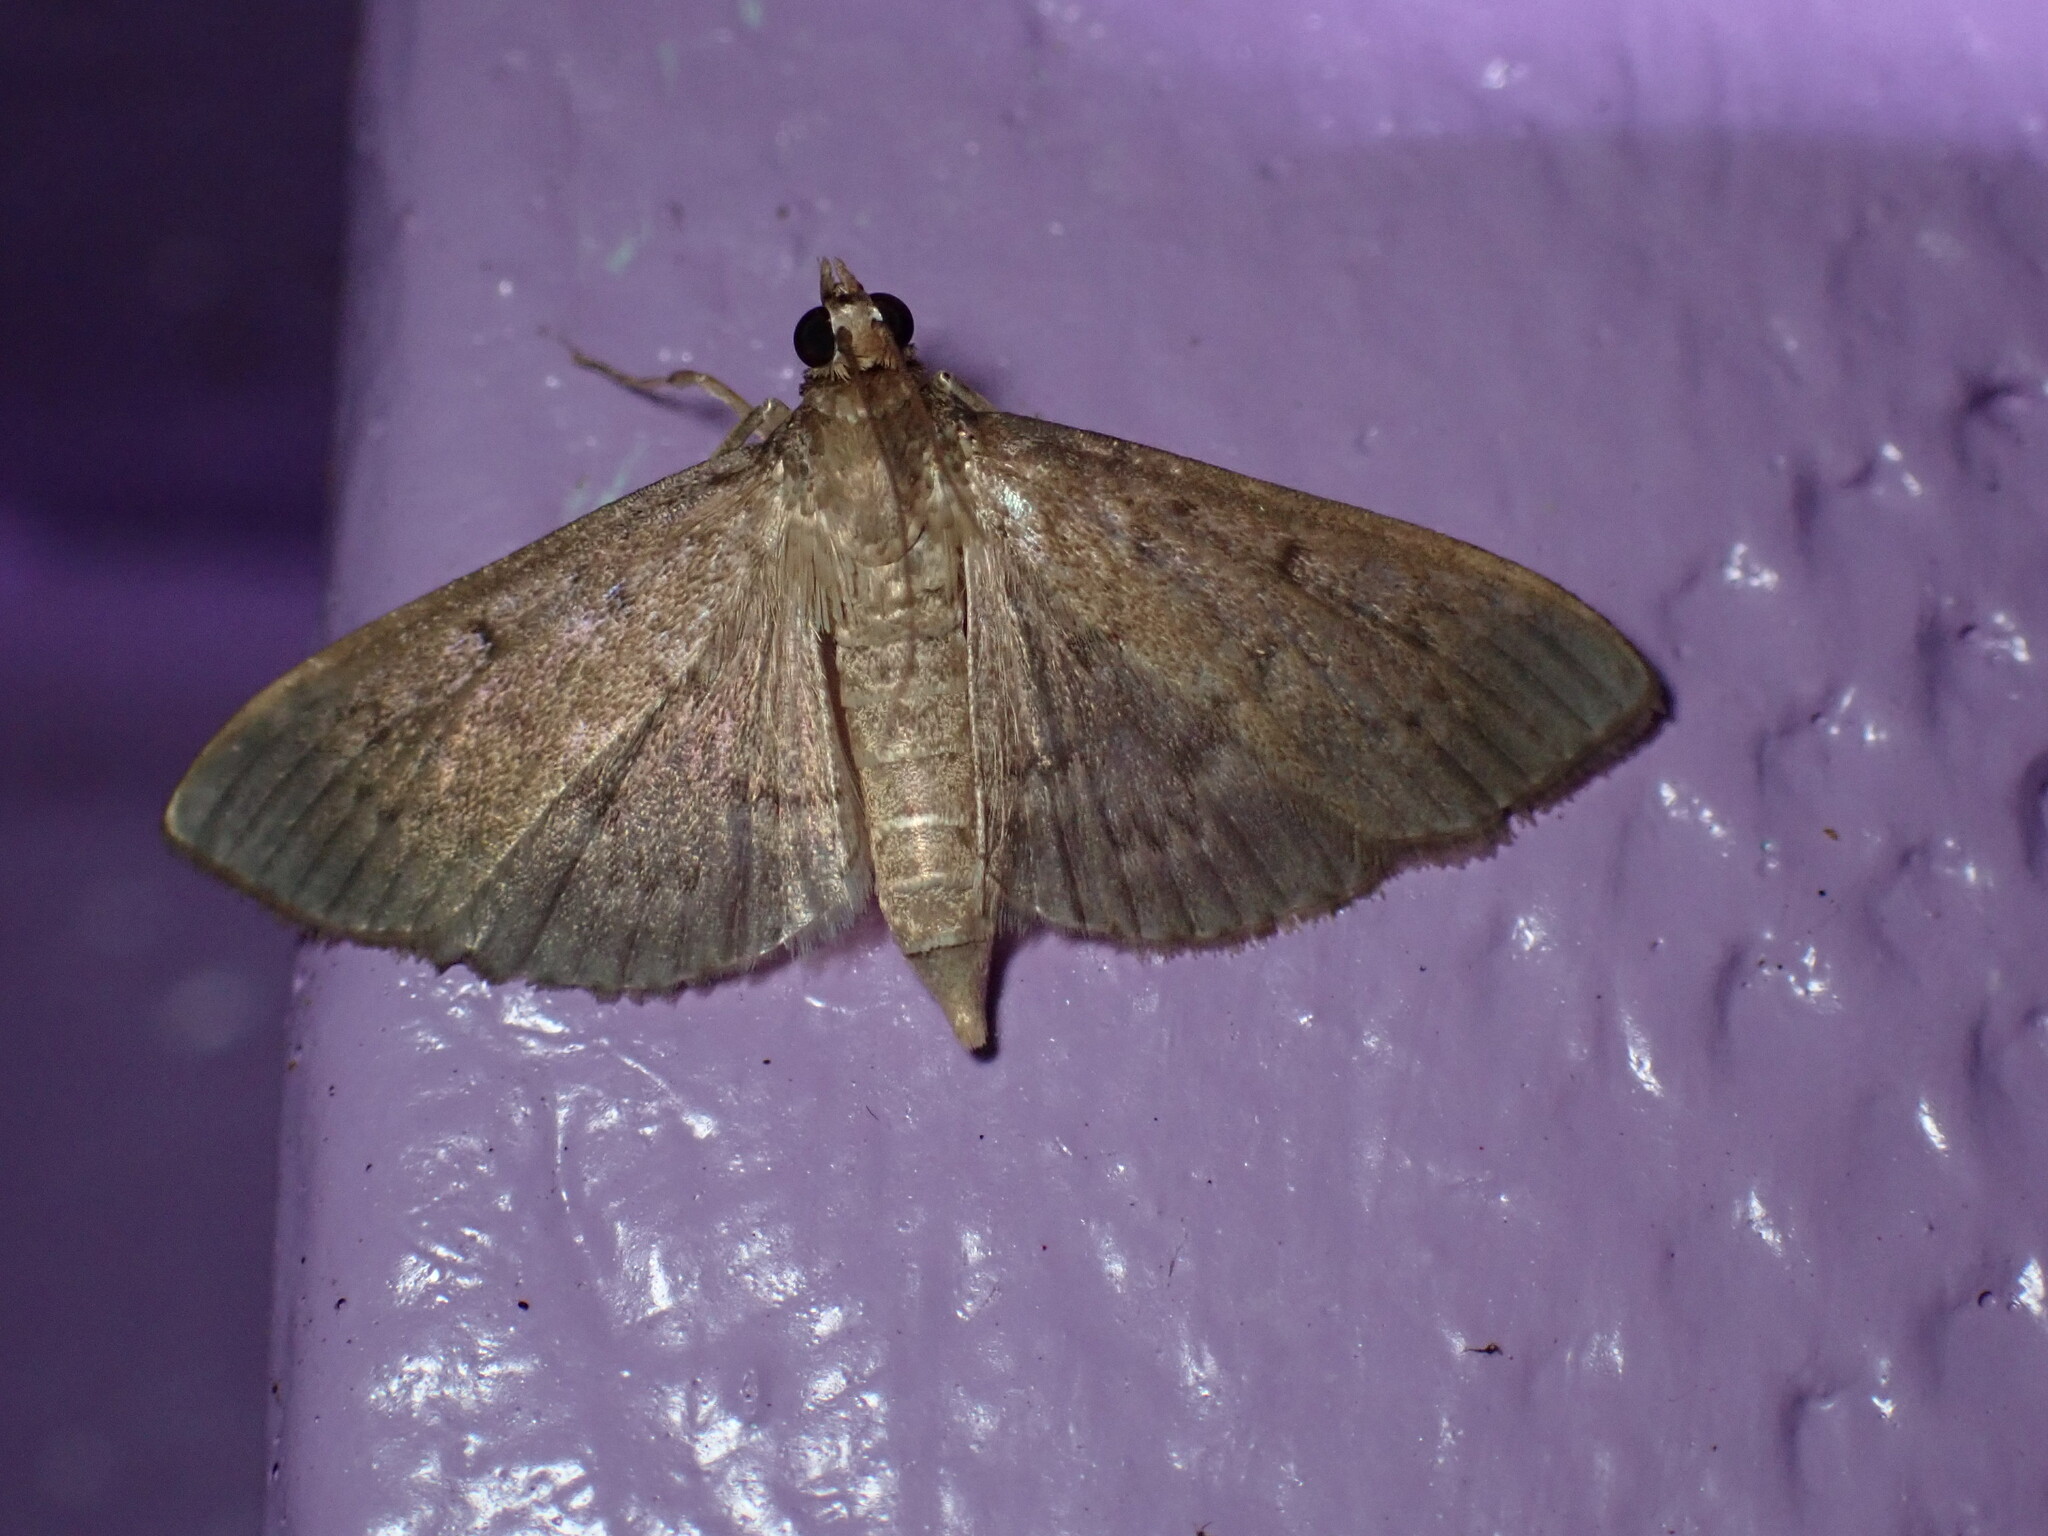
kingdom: Animalia
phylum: Arthropoda
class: Insecta
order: Lepidoptera
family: Crambidae
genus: Herpetogramma
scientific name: Herpetogramma licarsisalis
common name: Grass webworm
